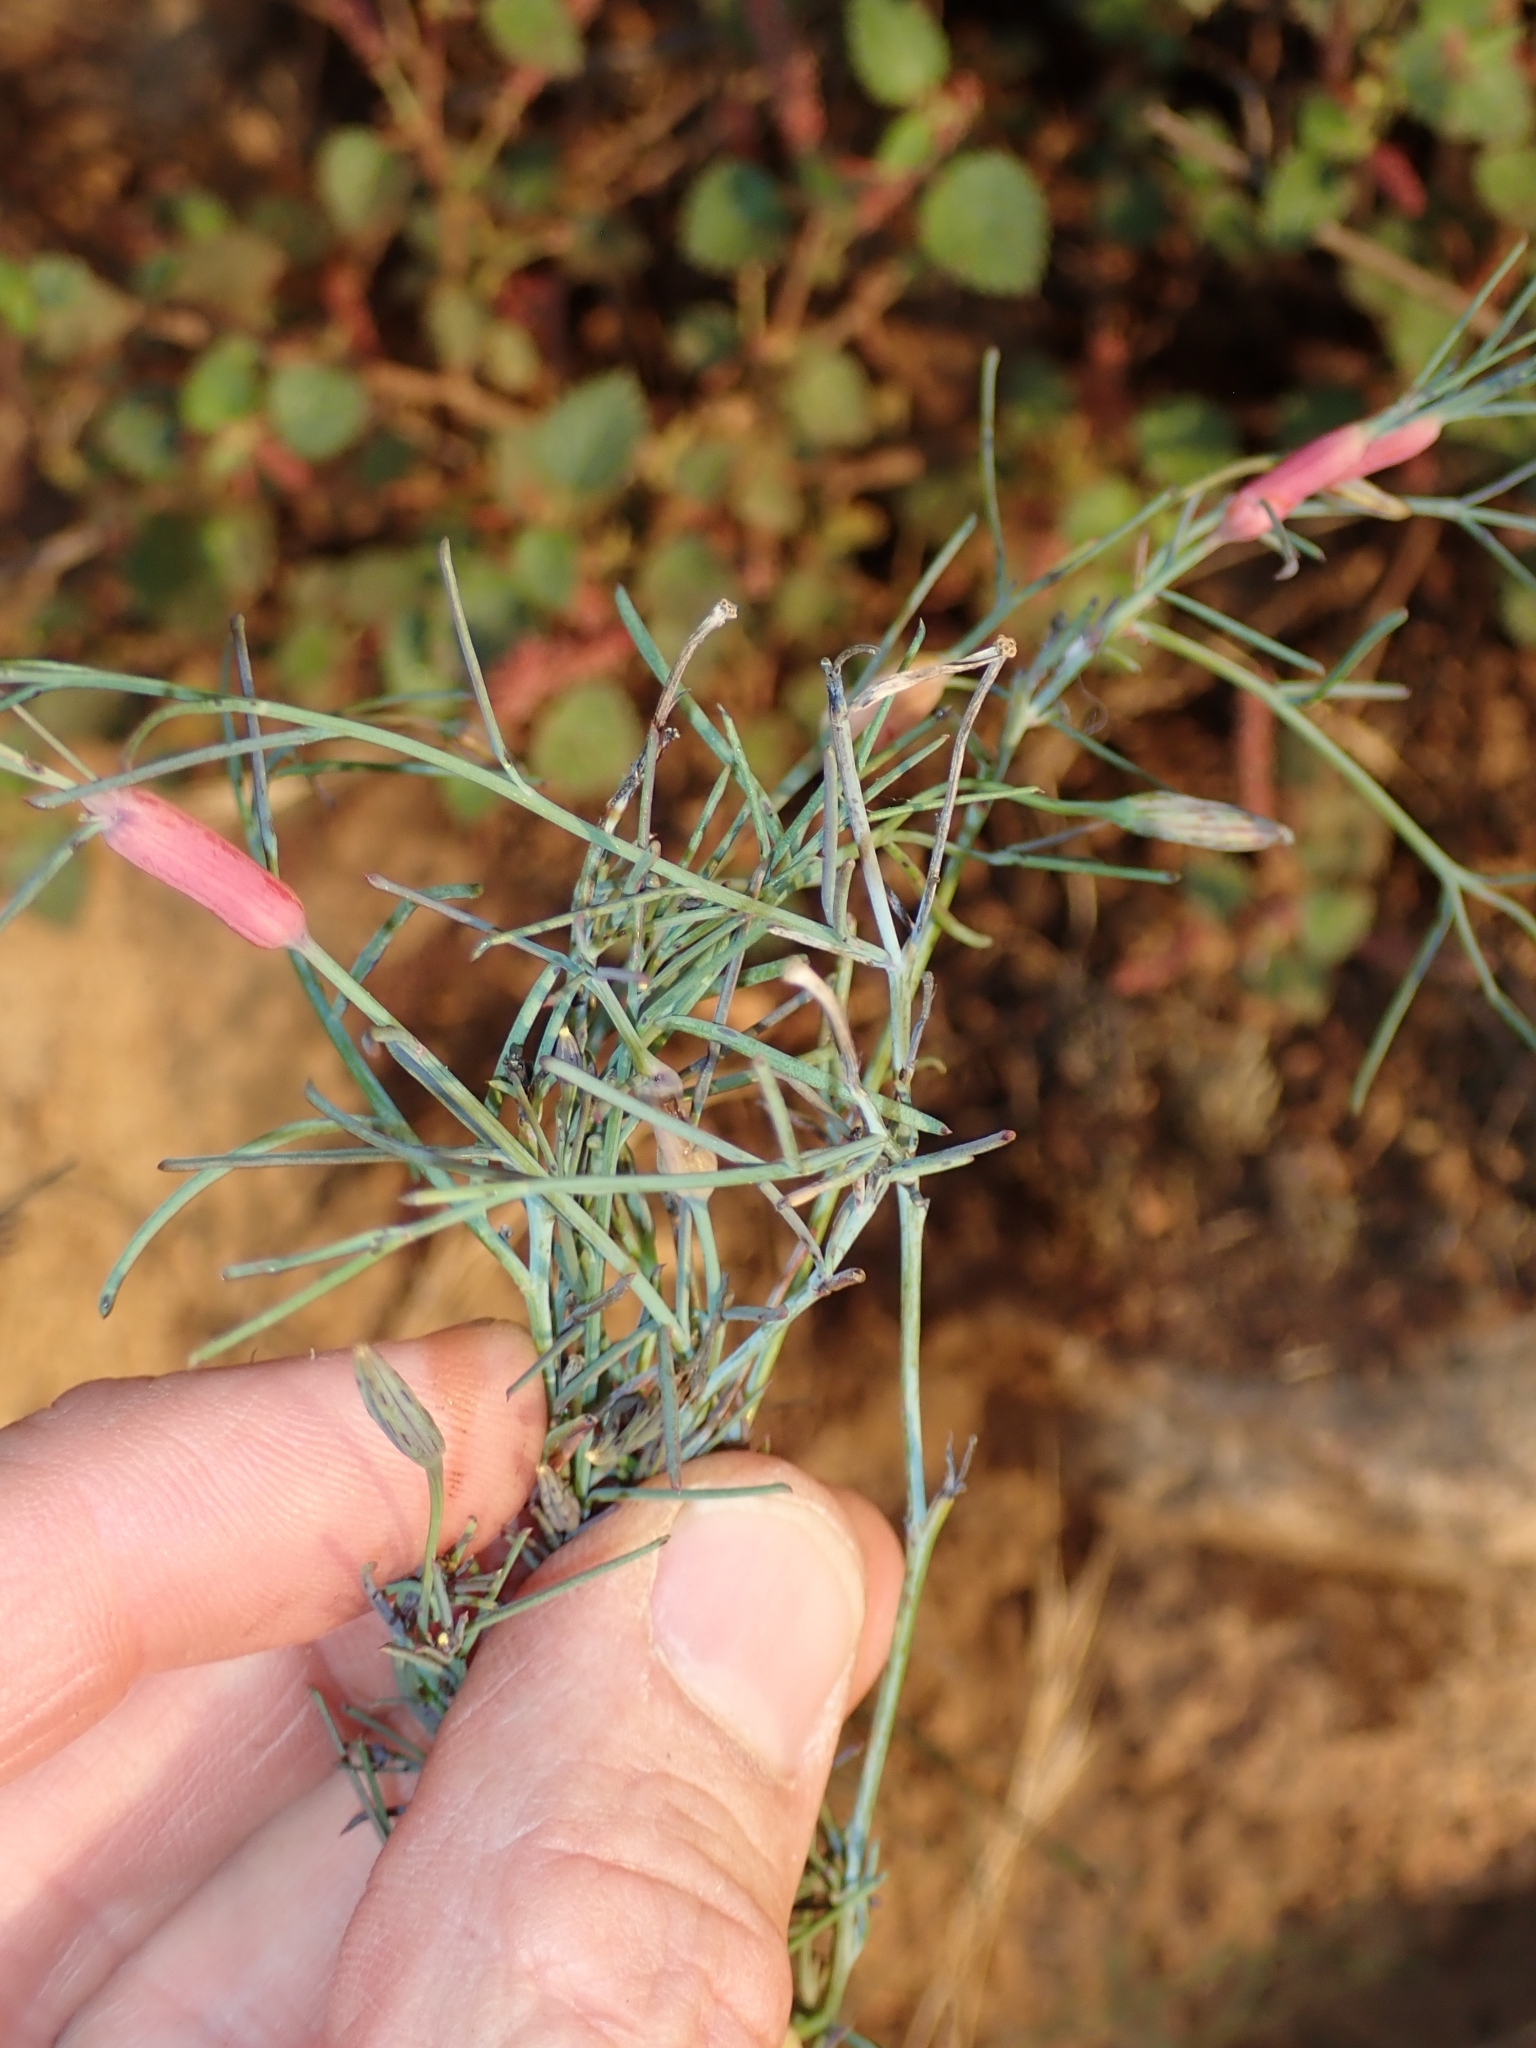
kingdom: Plantae
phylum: Tracheophyta
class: Magnoliopsida
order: Asterales
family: Asteraceae
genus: Porophyllum
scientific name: Porophyllum gracile
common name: Odora
